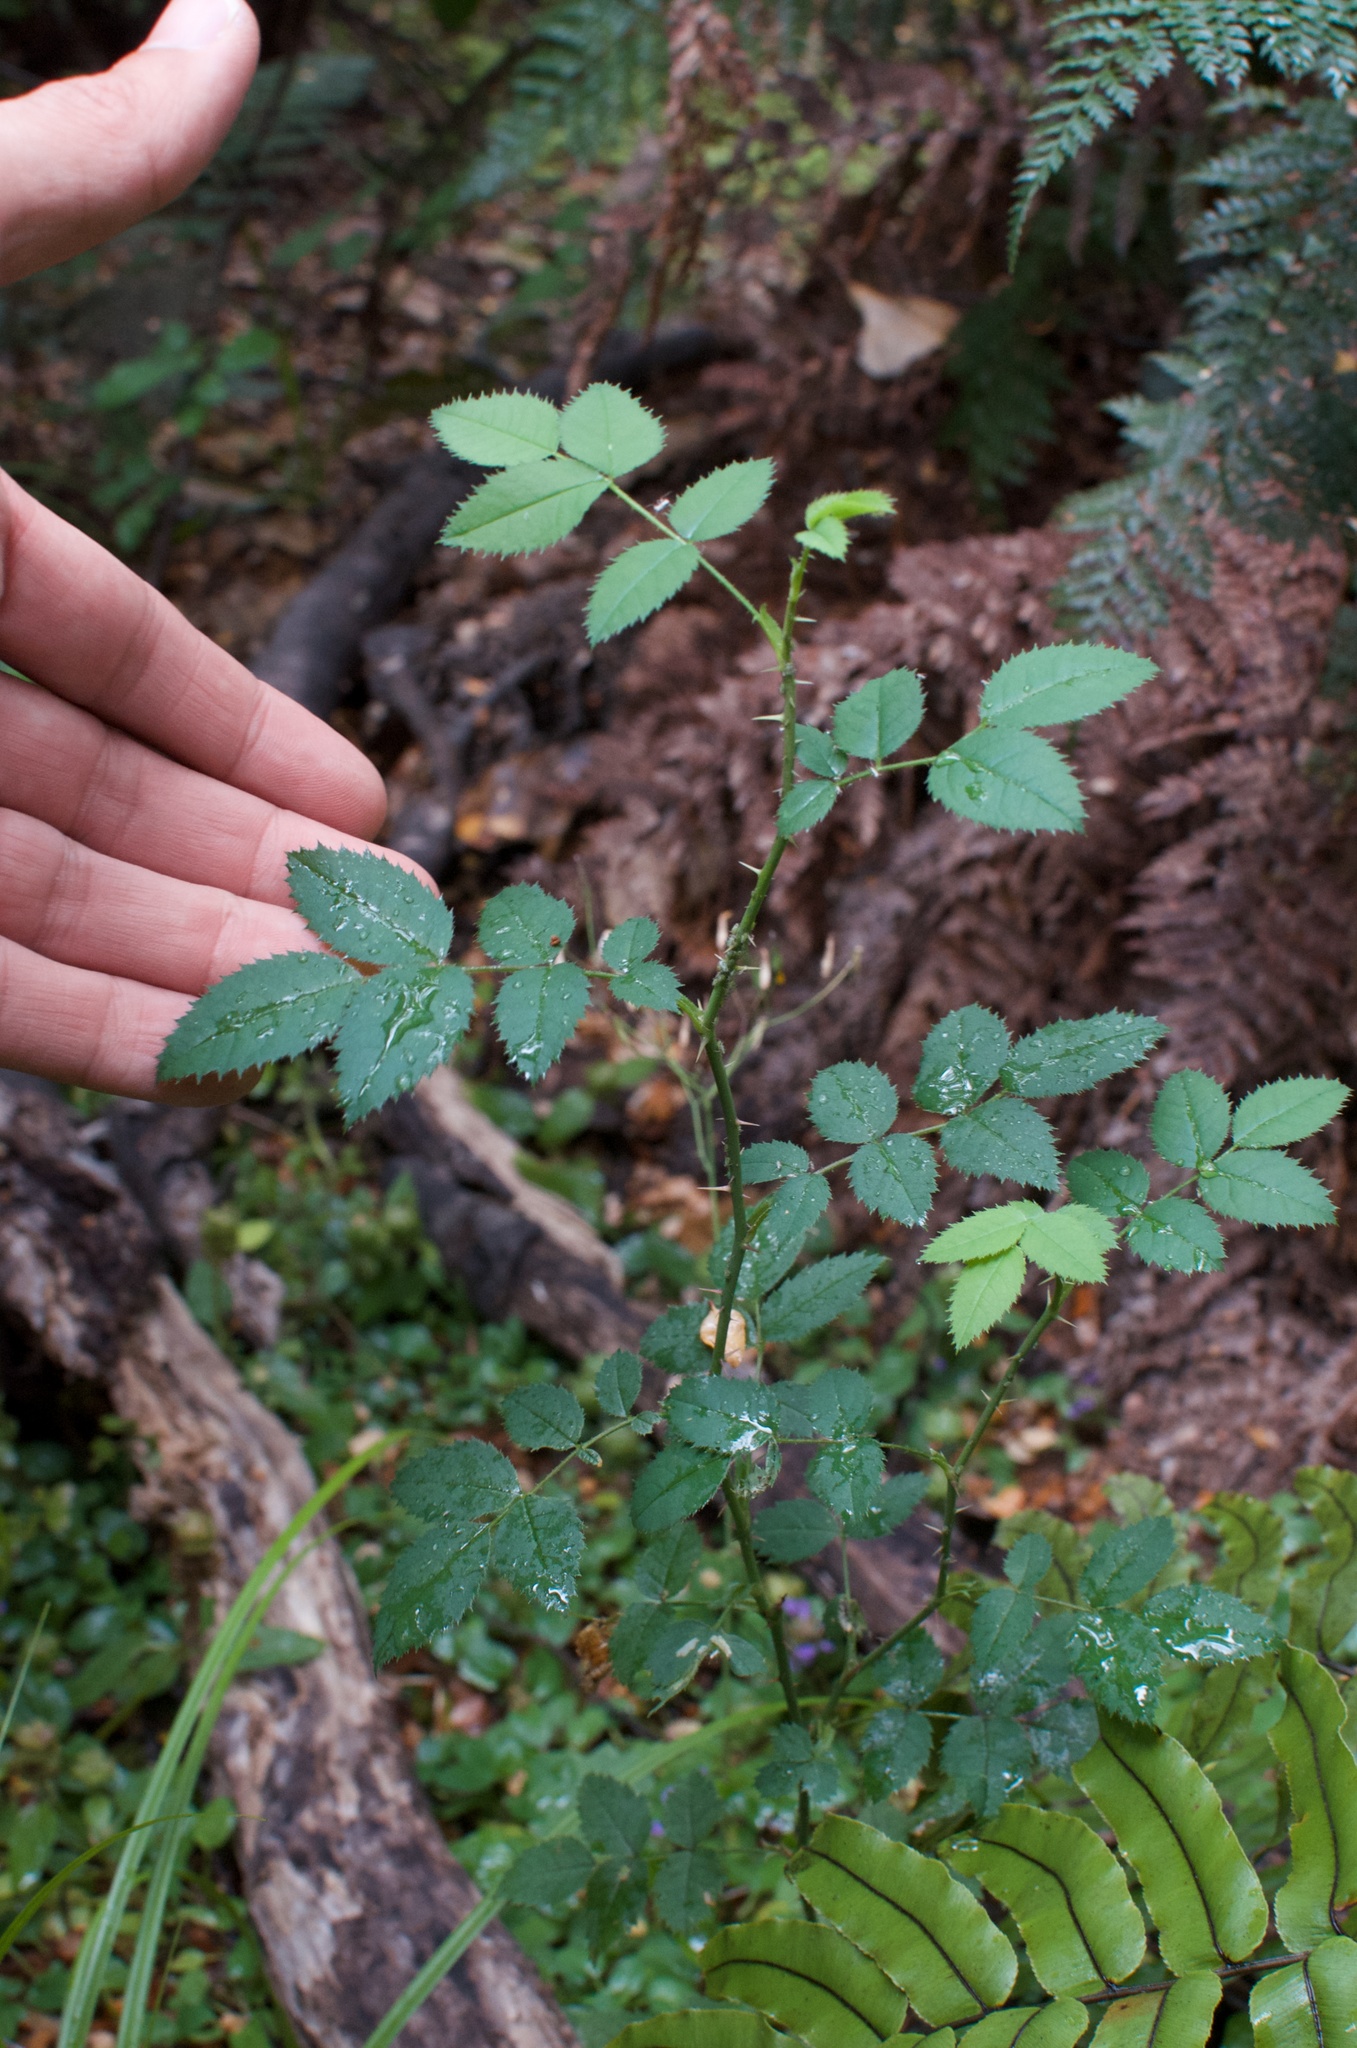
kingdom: Plantae
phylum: Tracheophyta
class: Magnoliopsida
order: Rosales
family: Rosaceae
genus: Rosa
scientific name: Rosa rubiginosa
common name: Sweet-briar
